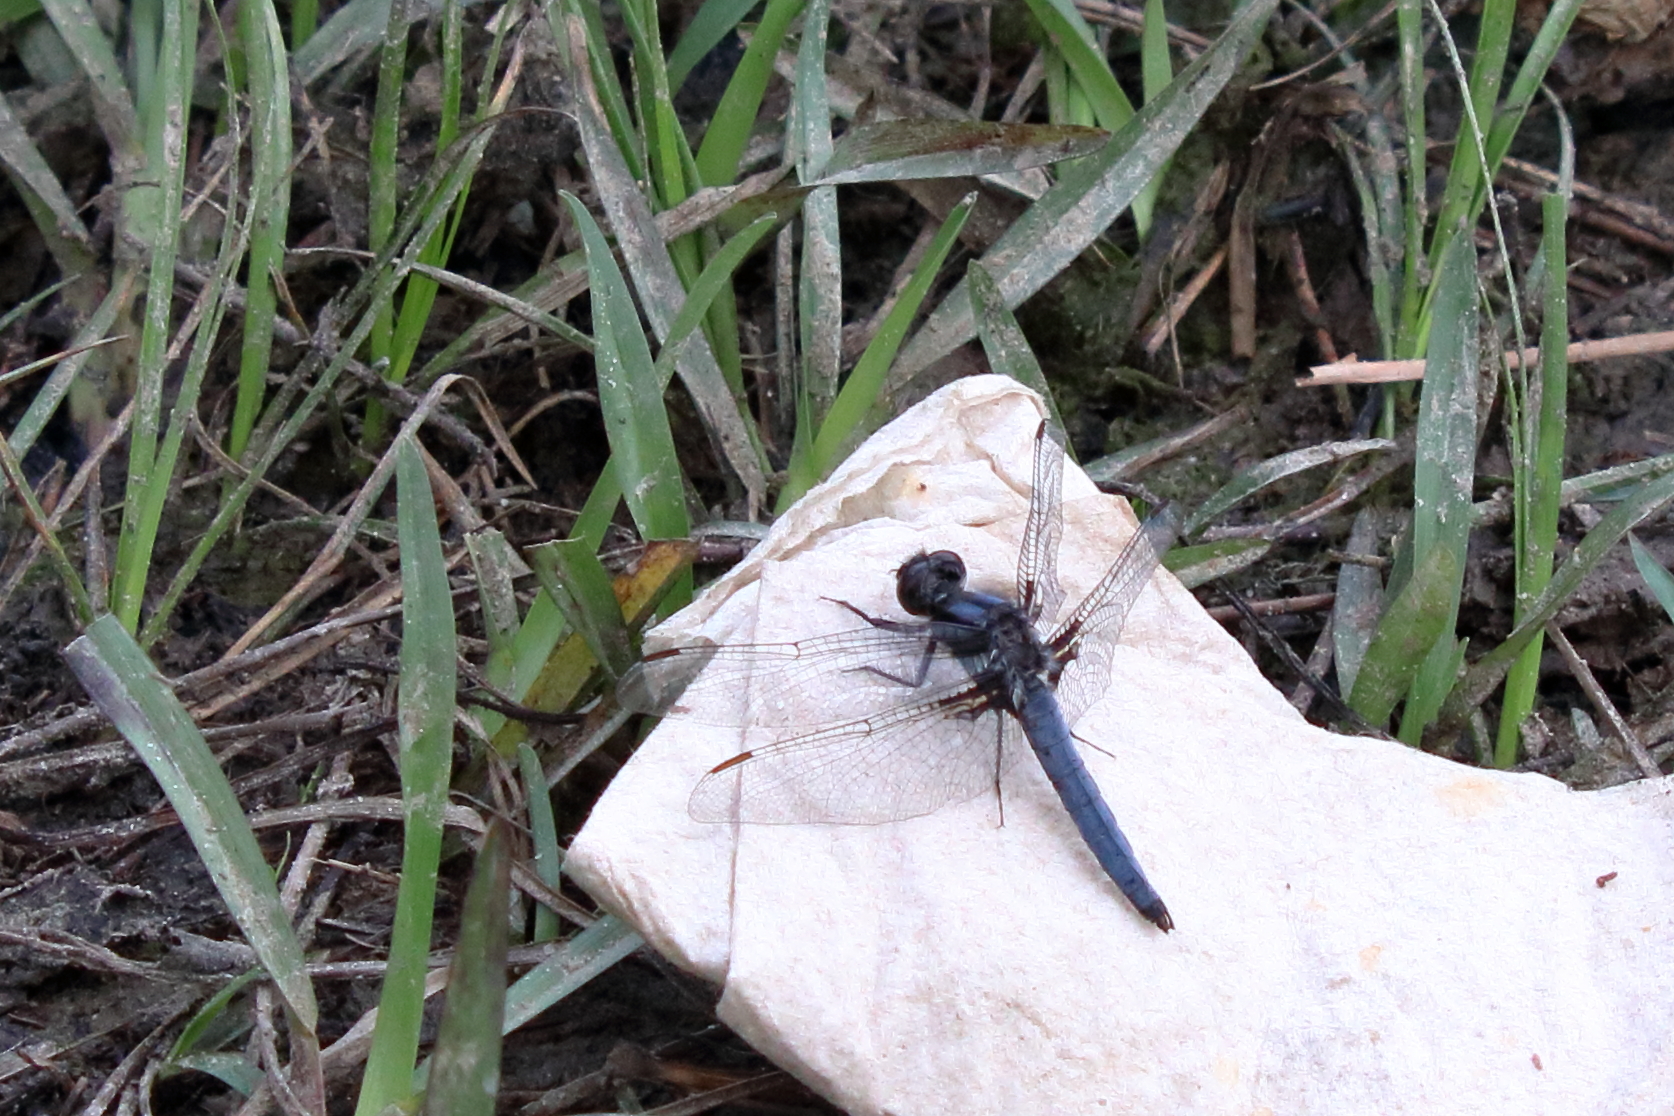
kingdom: Animalia
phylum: Arthropoda
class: Insecta
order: Odonata
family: Libellulidae
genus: Ladona
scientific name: Ladona deplanata
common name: Blue corporal
